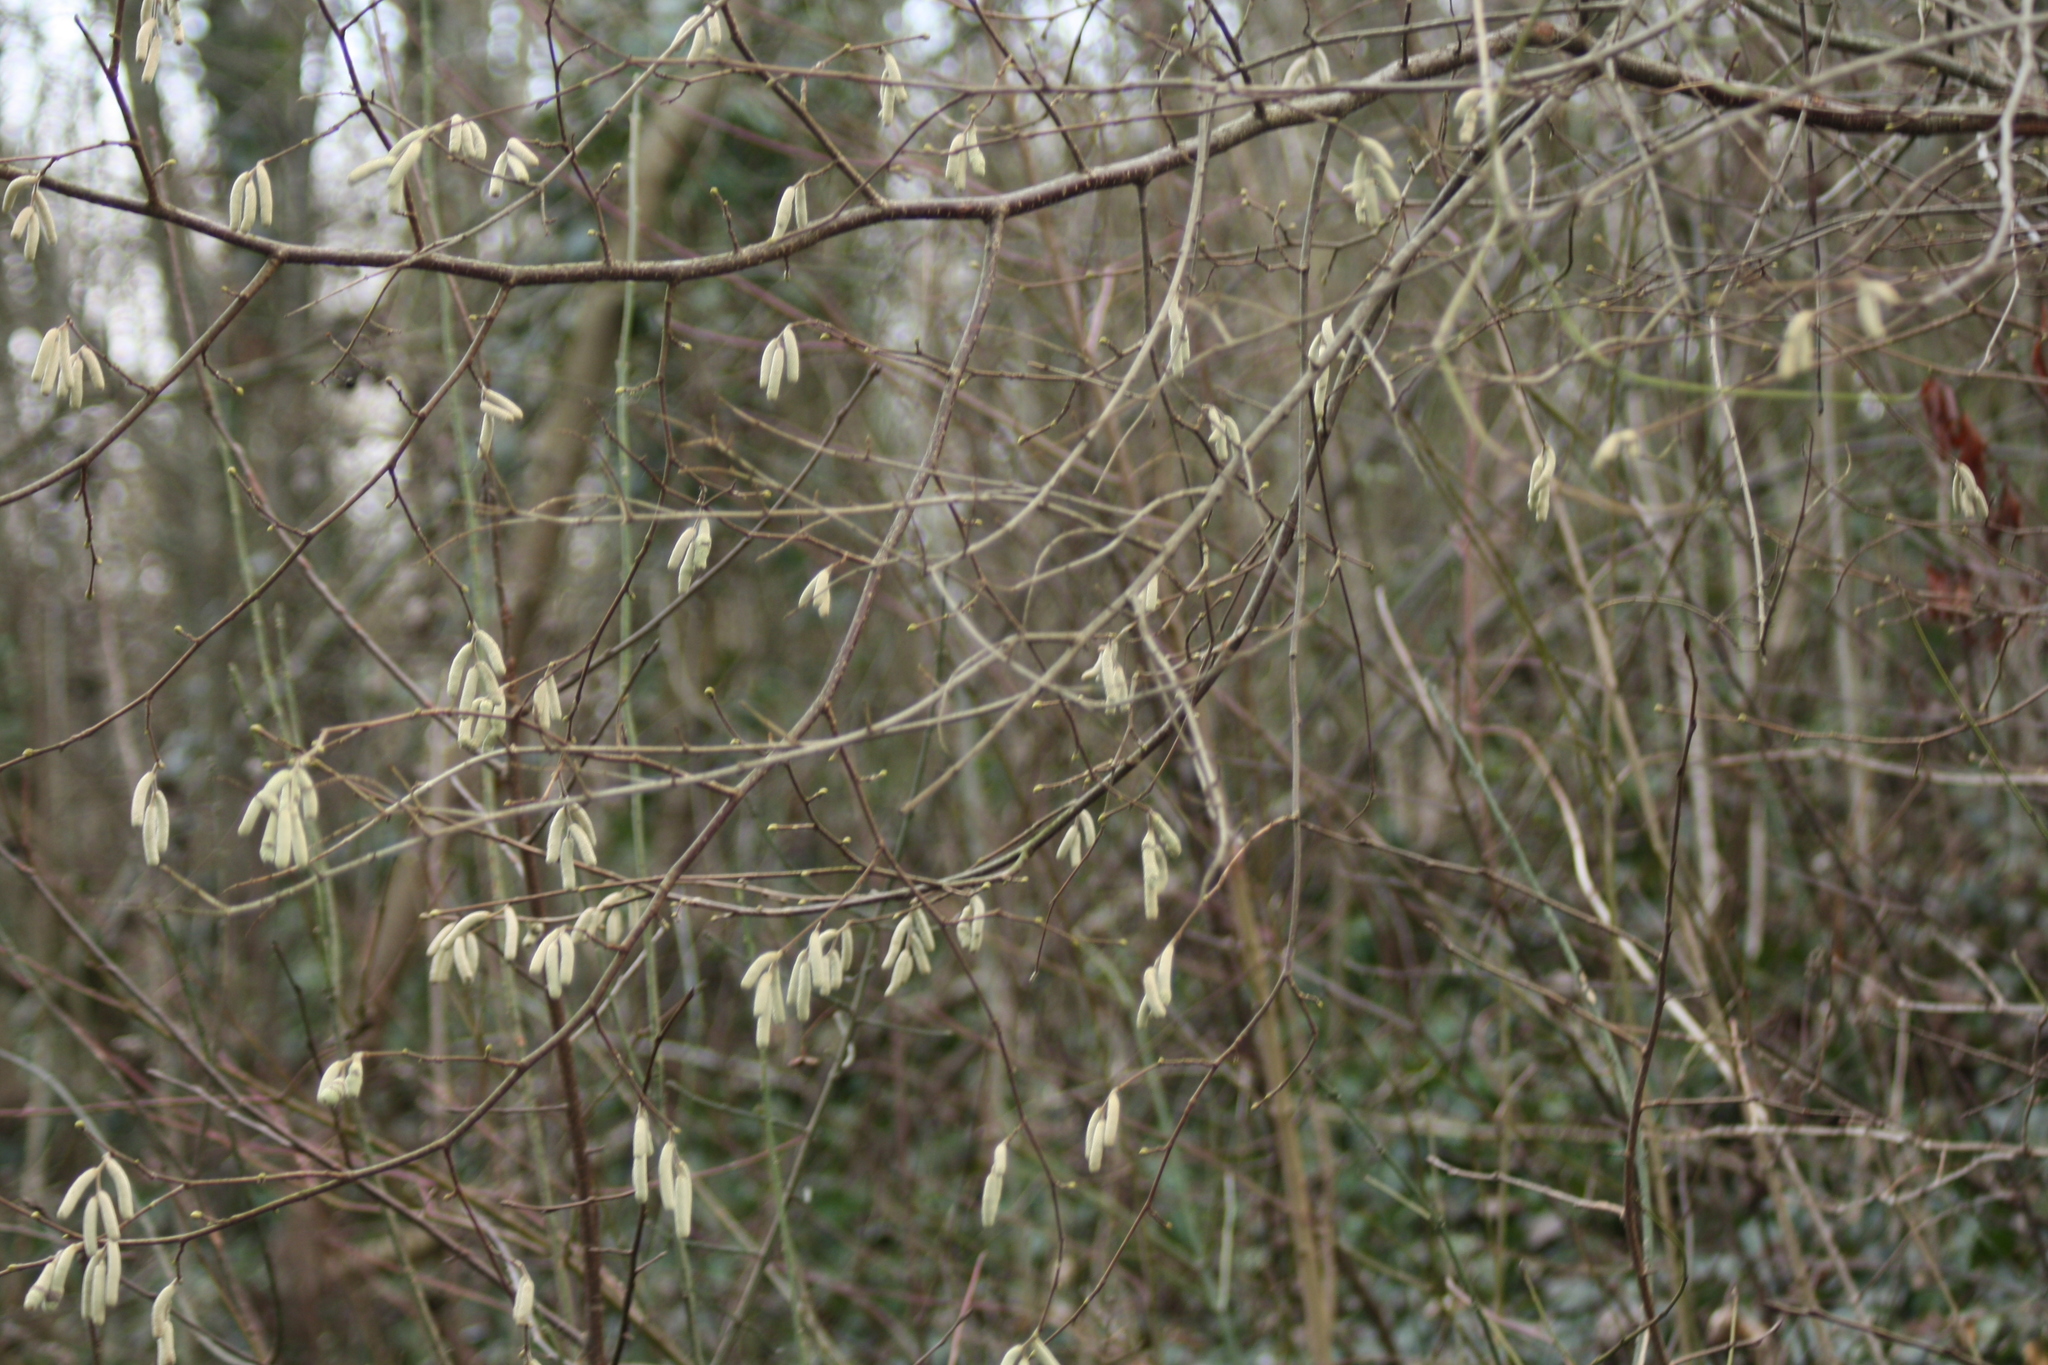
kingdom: Plantae
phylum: Tracheophyta
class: Magnoliopsida
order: Fagales
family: Betulaceae
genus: Corylus
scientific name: Corylus avellana
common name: European hazel
